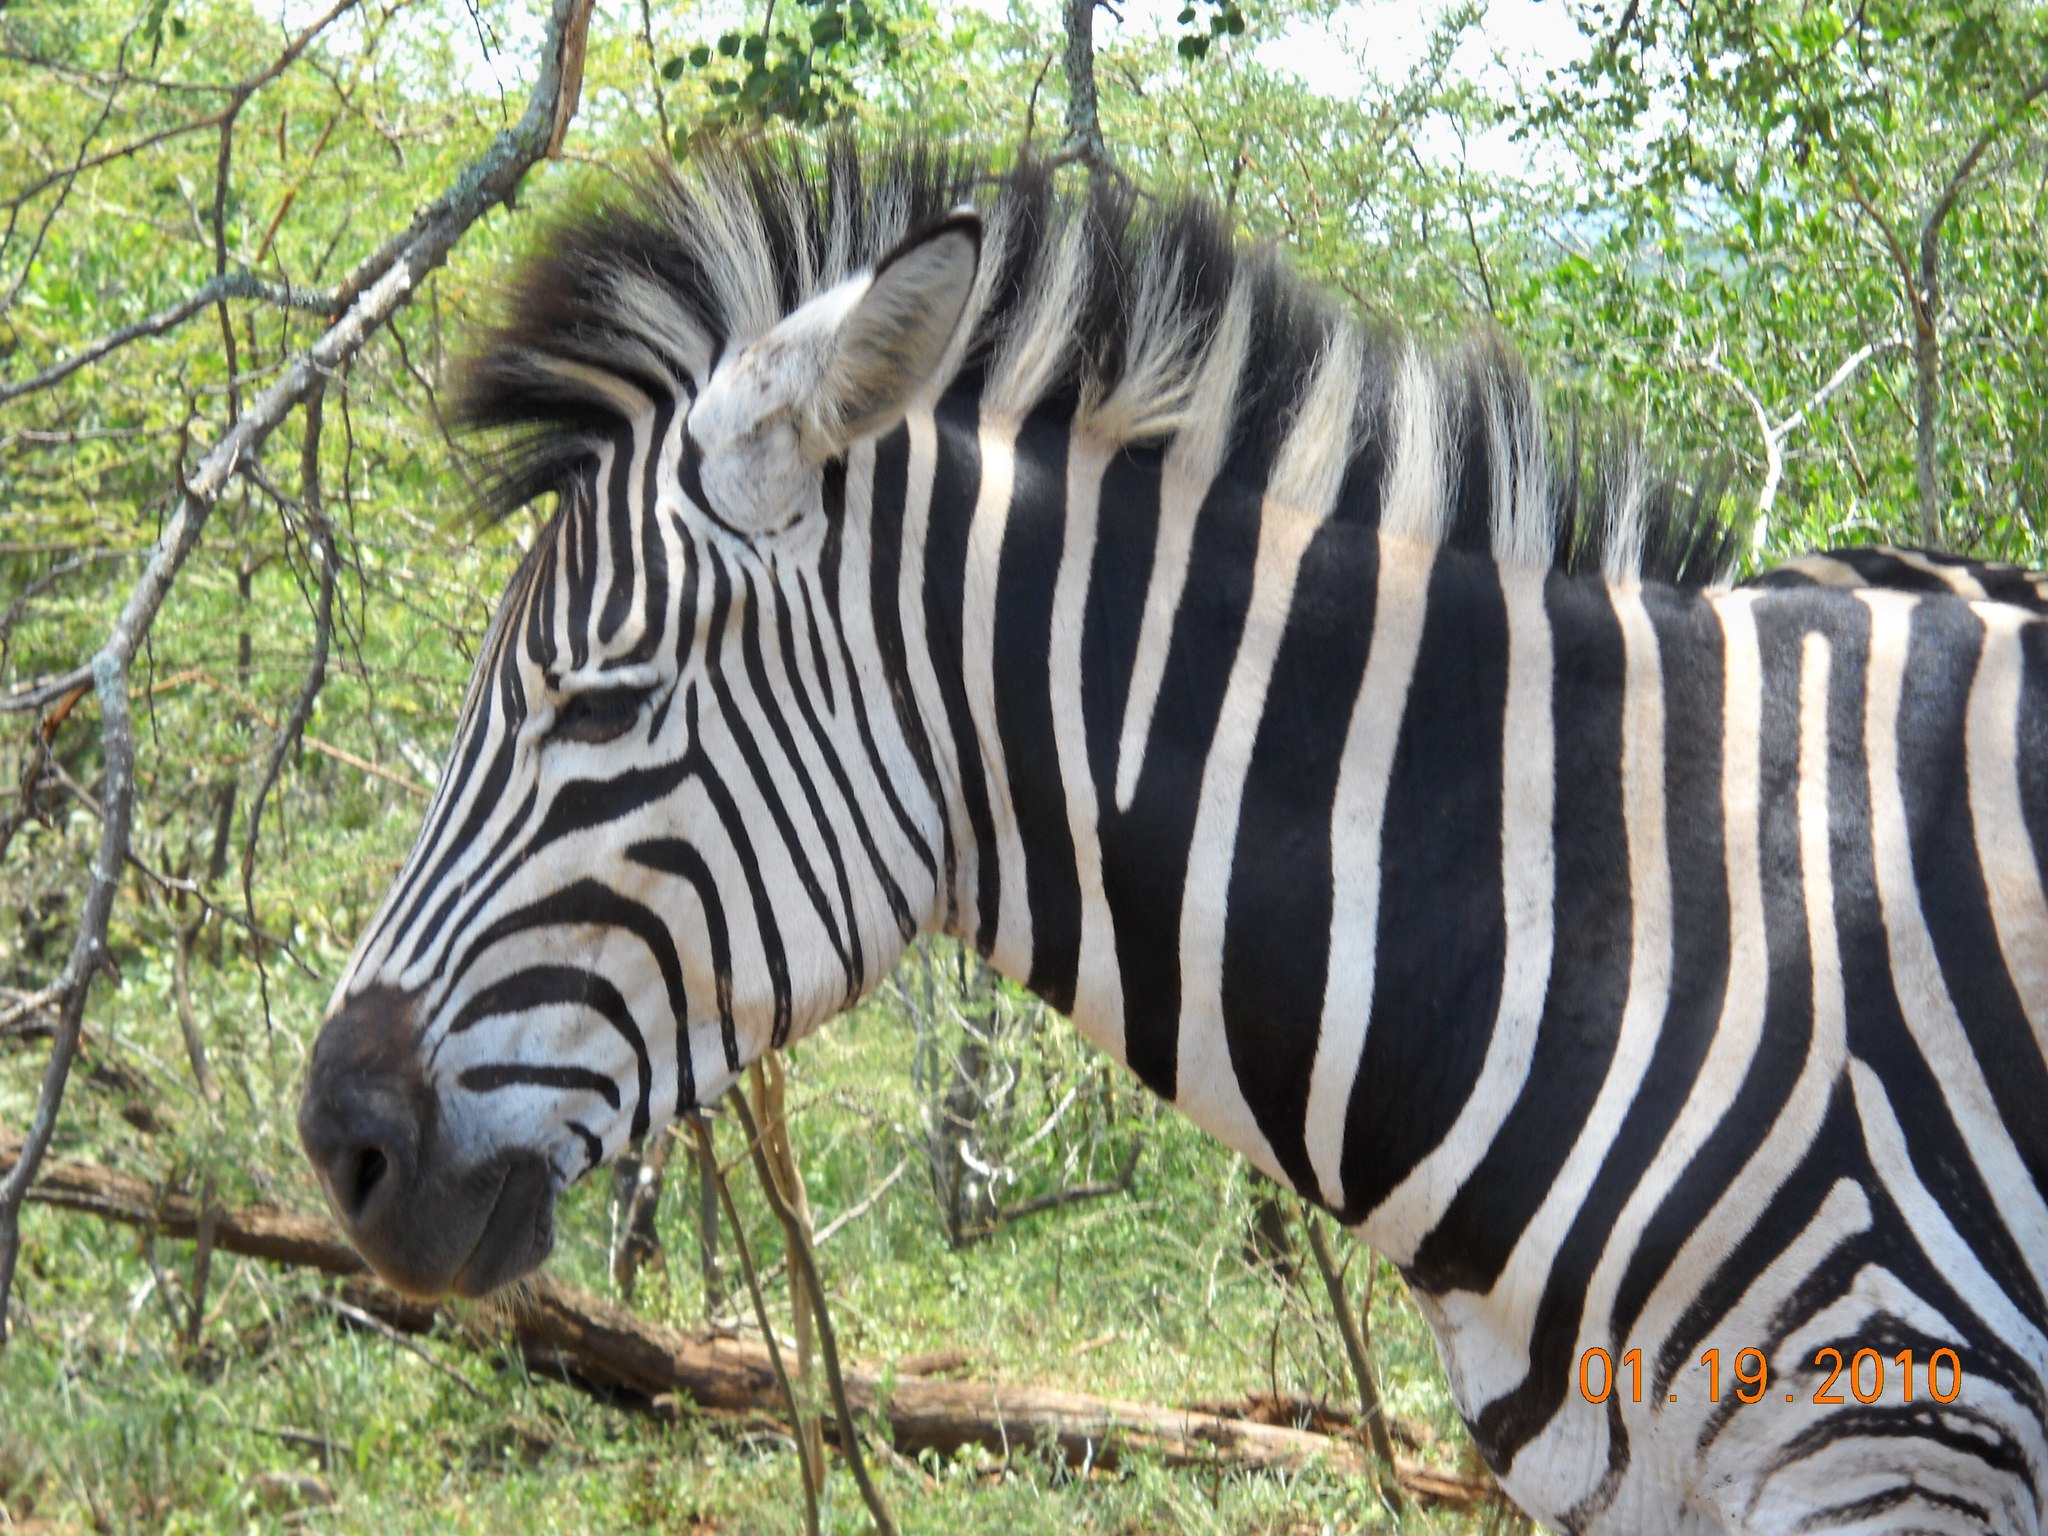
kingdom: Animalia
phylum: Chordata
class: Mammalia
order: Perissodactyla
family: Equidae
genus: Equus
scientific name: Equus quagga
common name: Plains zebra
